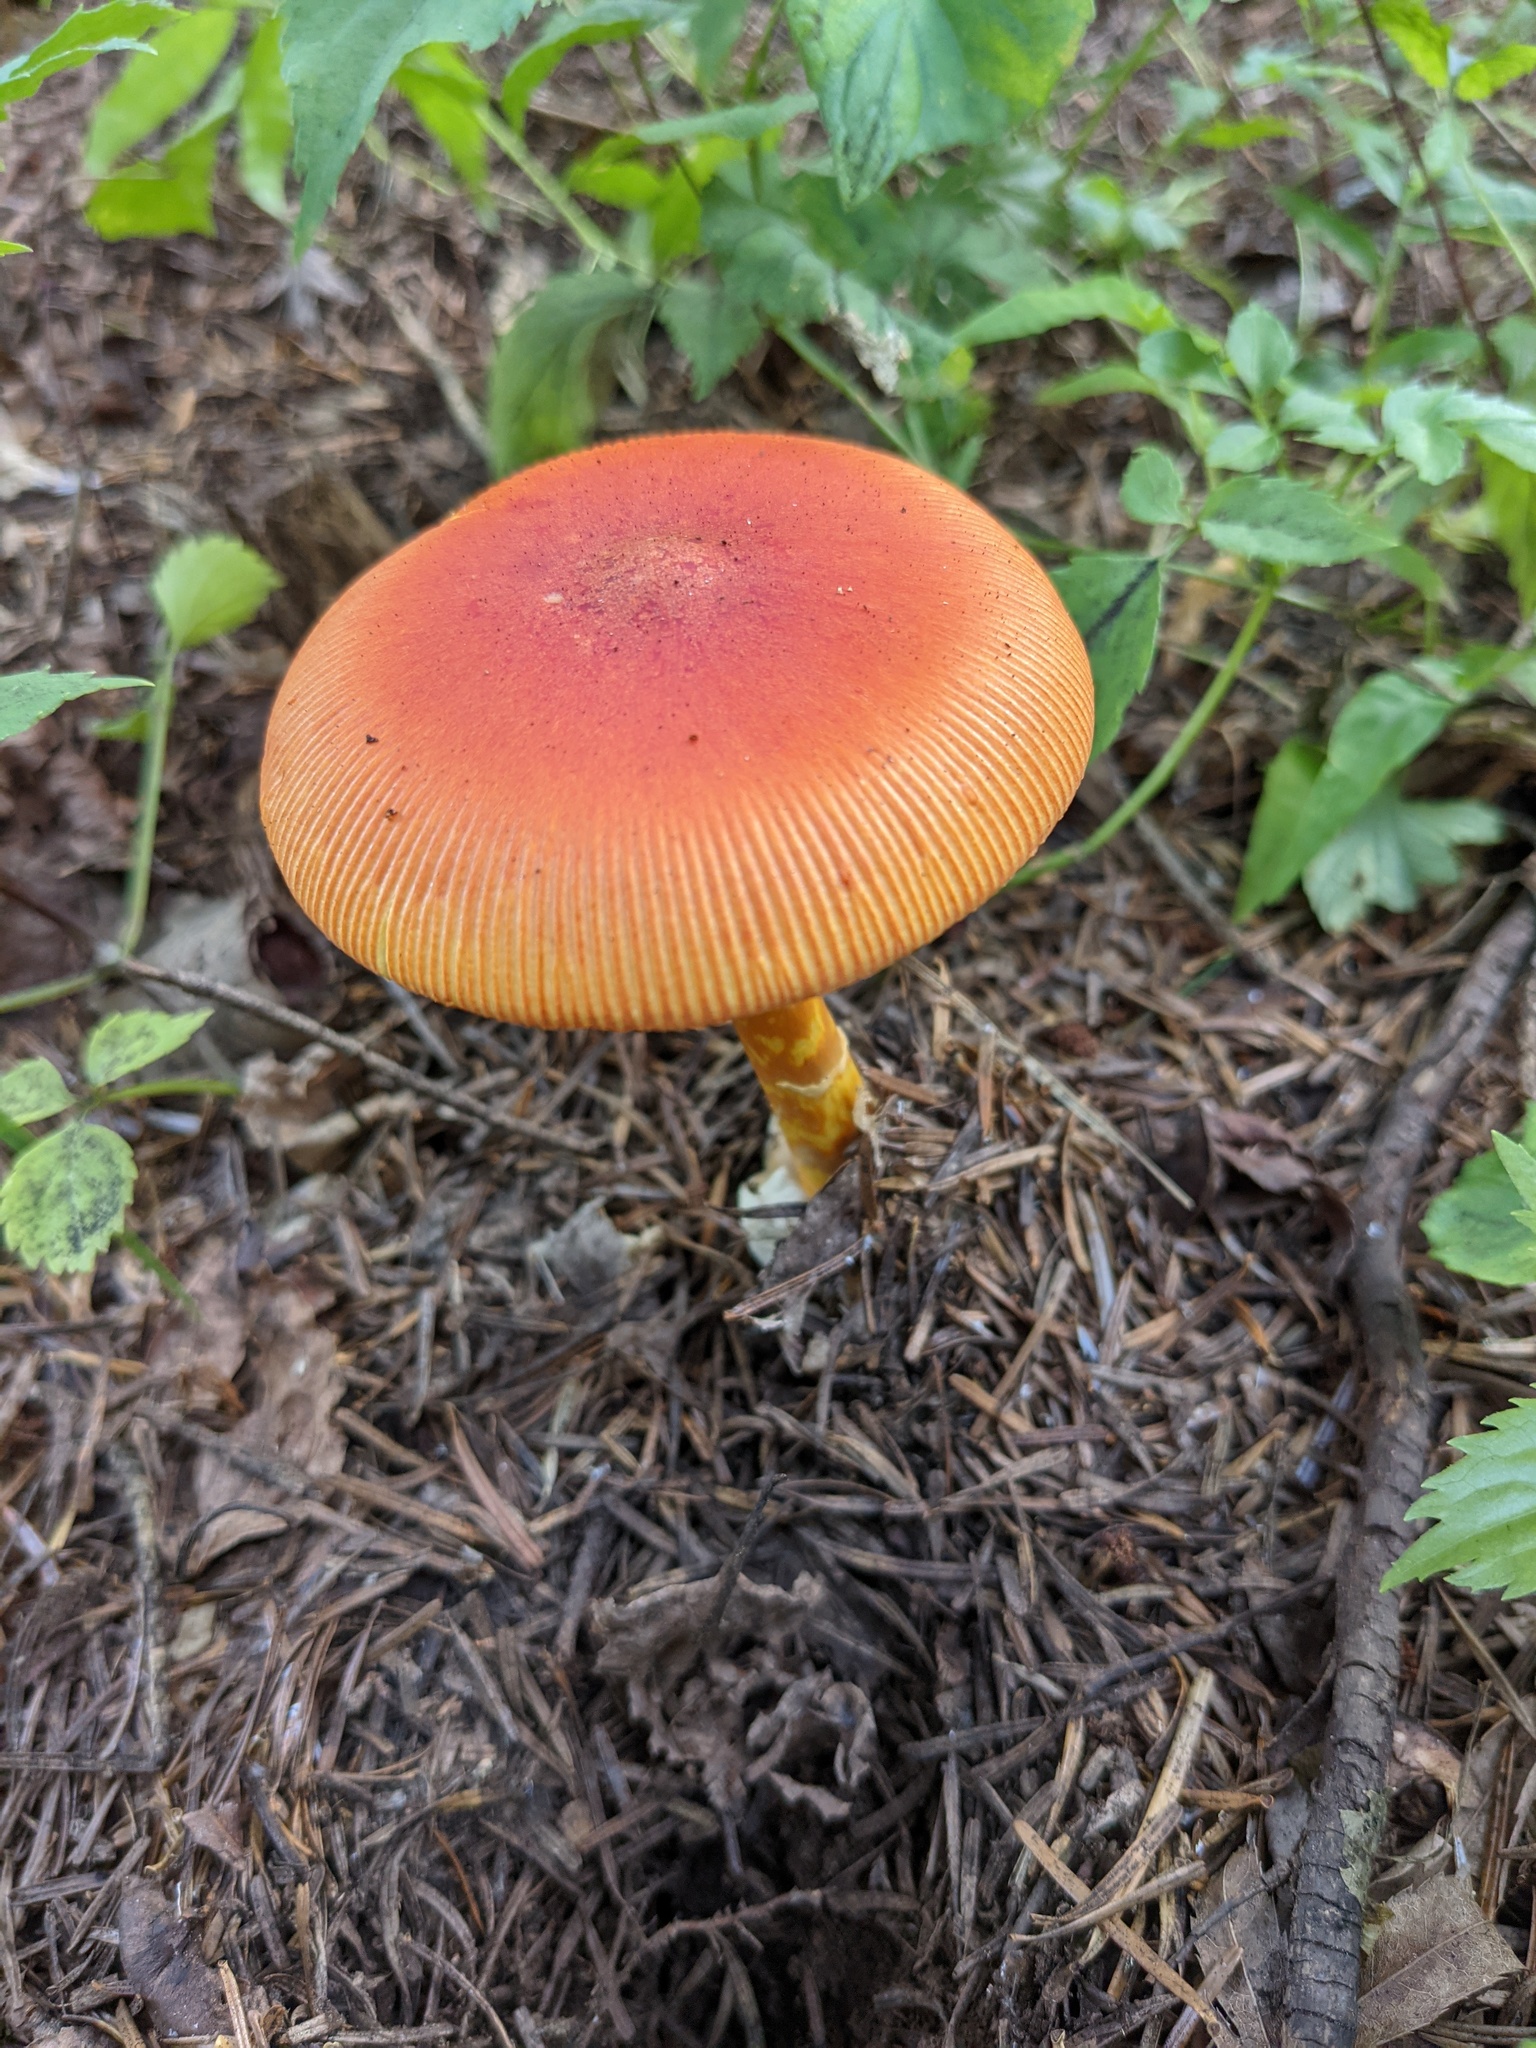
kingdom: Fungi
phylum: Basidiomycota
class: Agaricomycetes
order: Agaricales
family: Amanitaceae
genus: Amanita
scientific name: Amanita caesareoides
